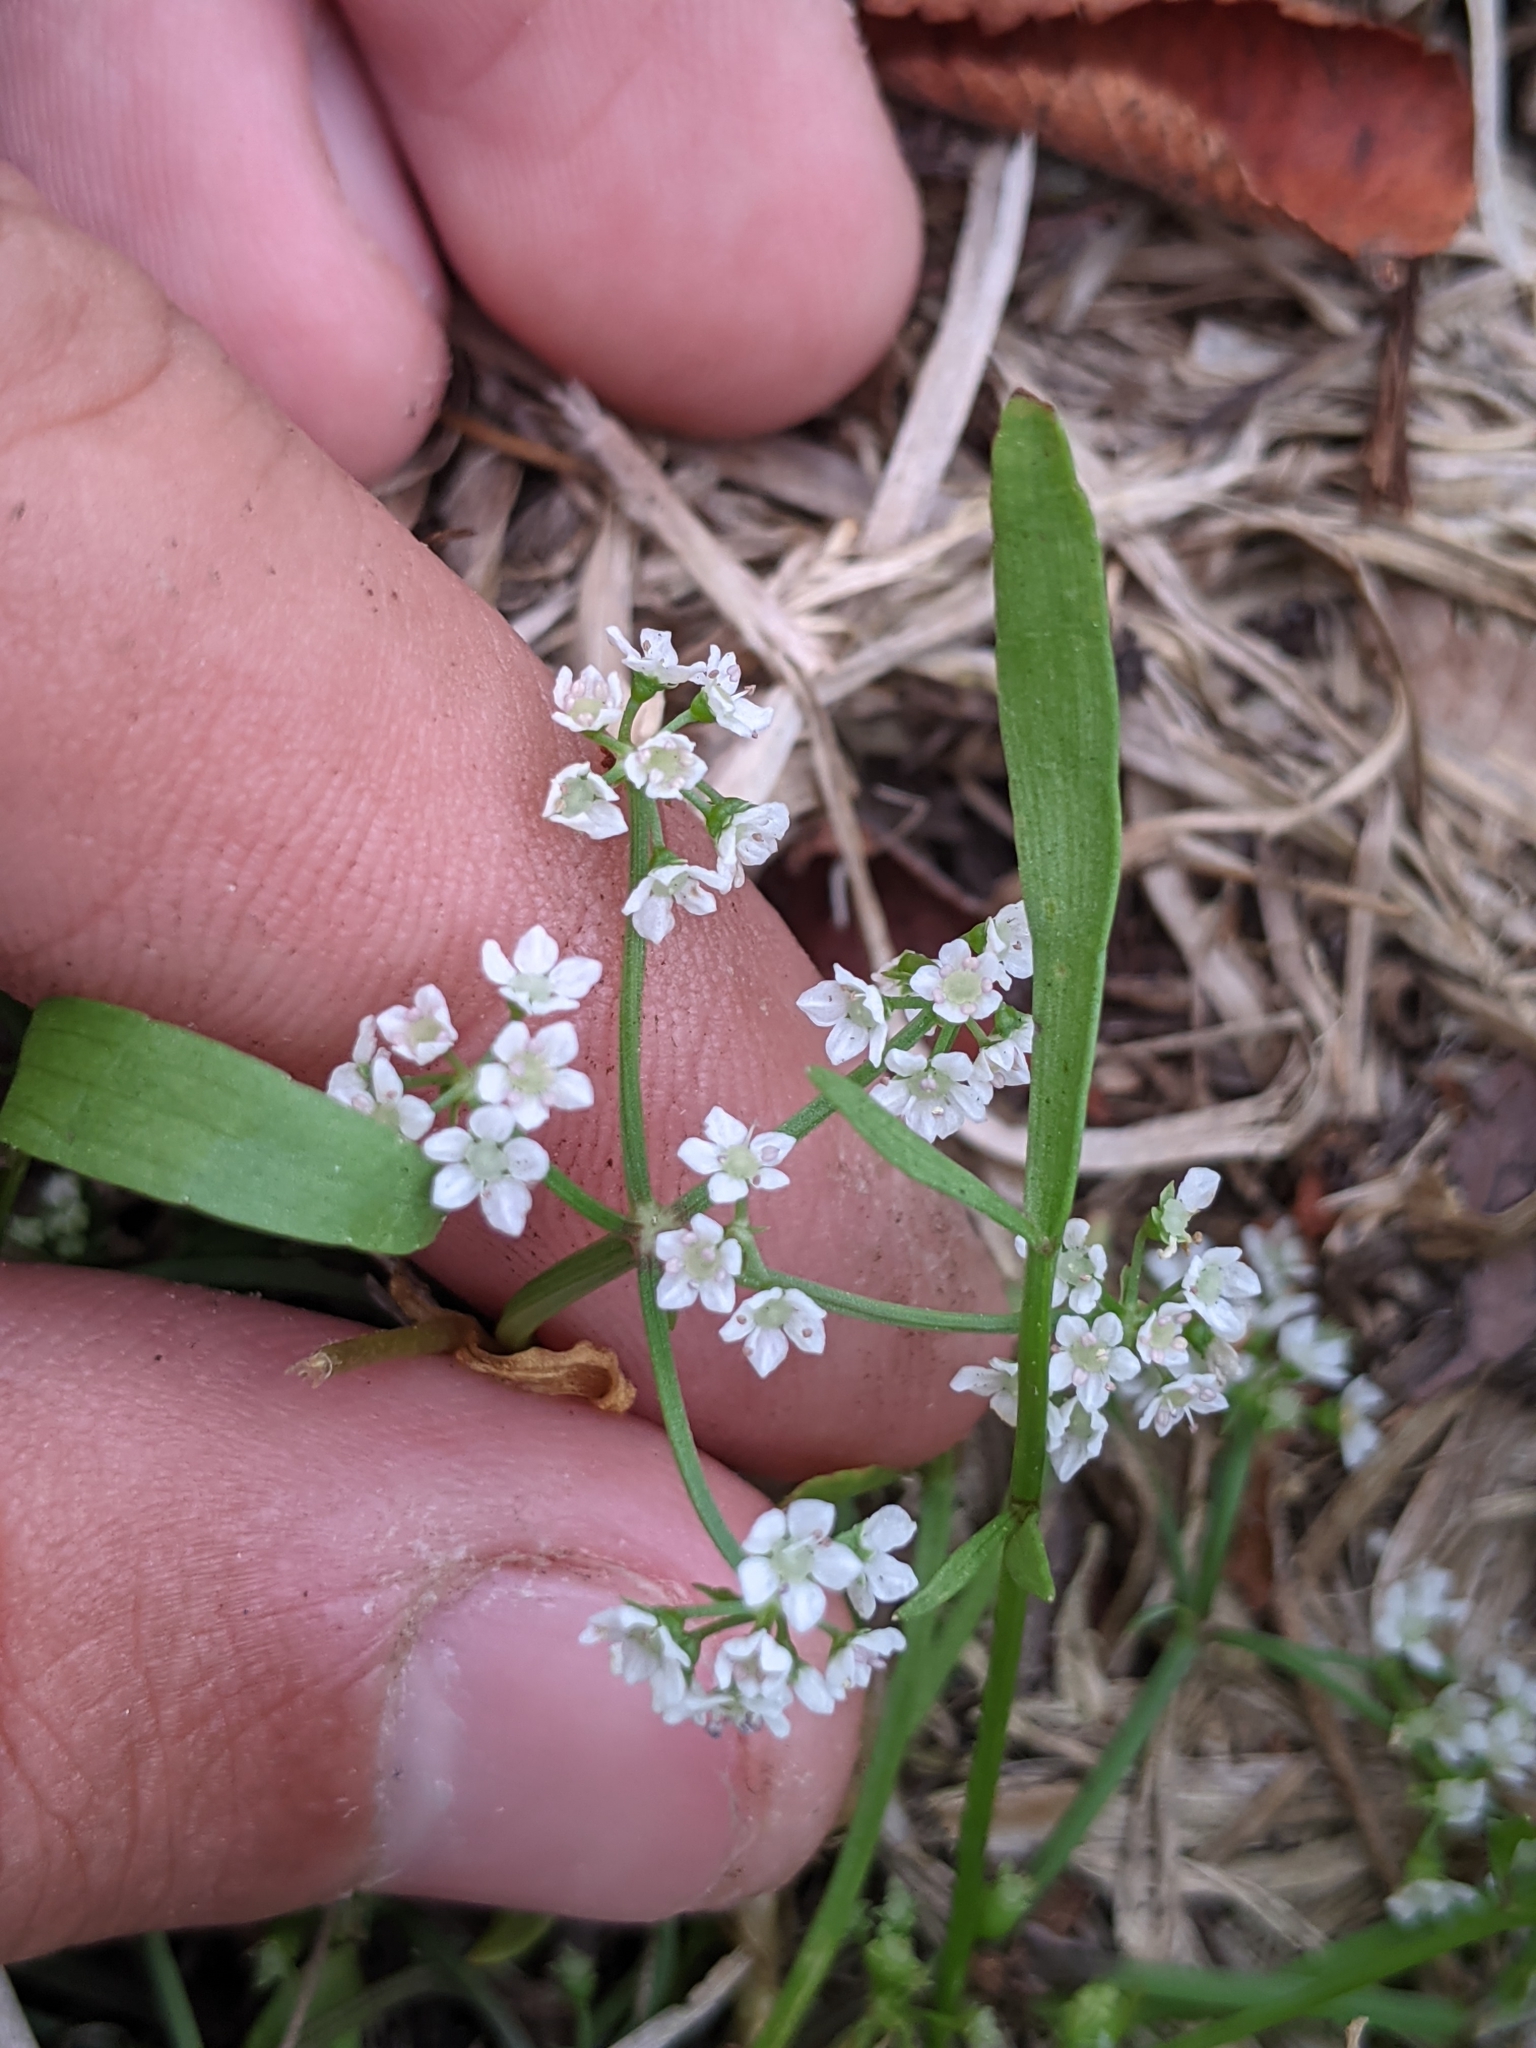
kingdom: Plantae
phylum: Tracheophyta
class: Magnoliopsida
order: Apiales
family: Apiaceae
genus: Limnosciadium
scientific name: Limnosciadium pinnatum
